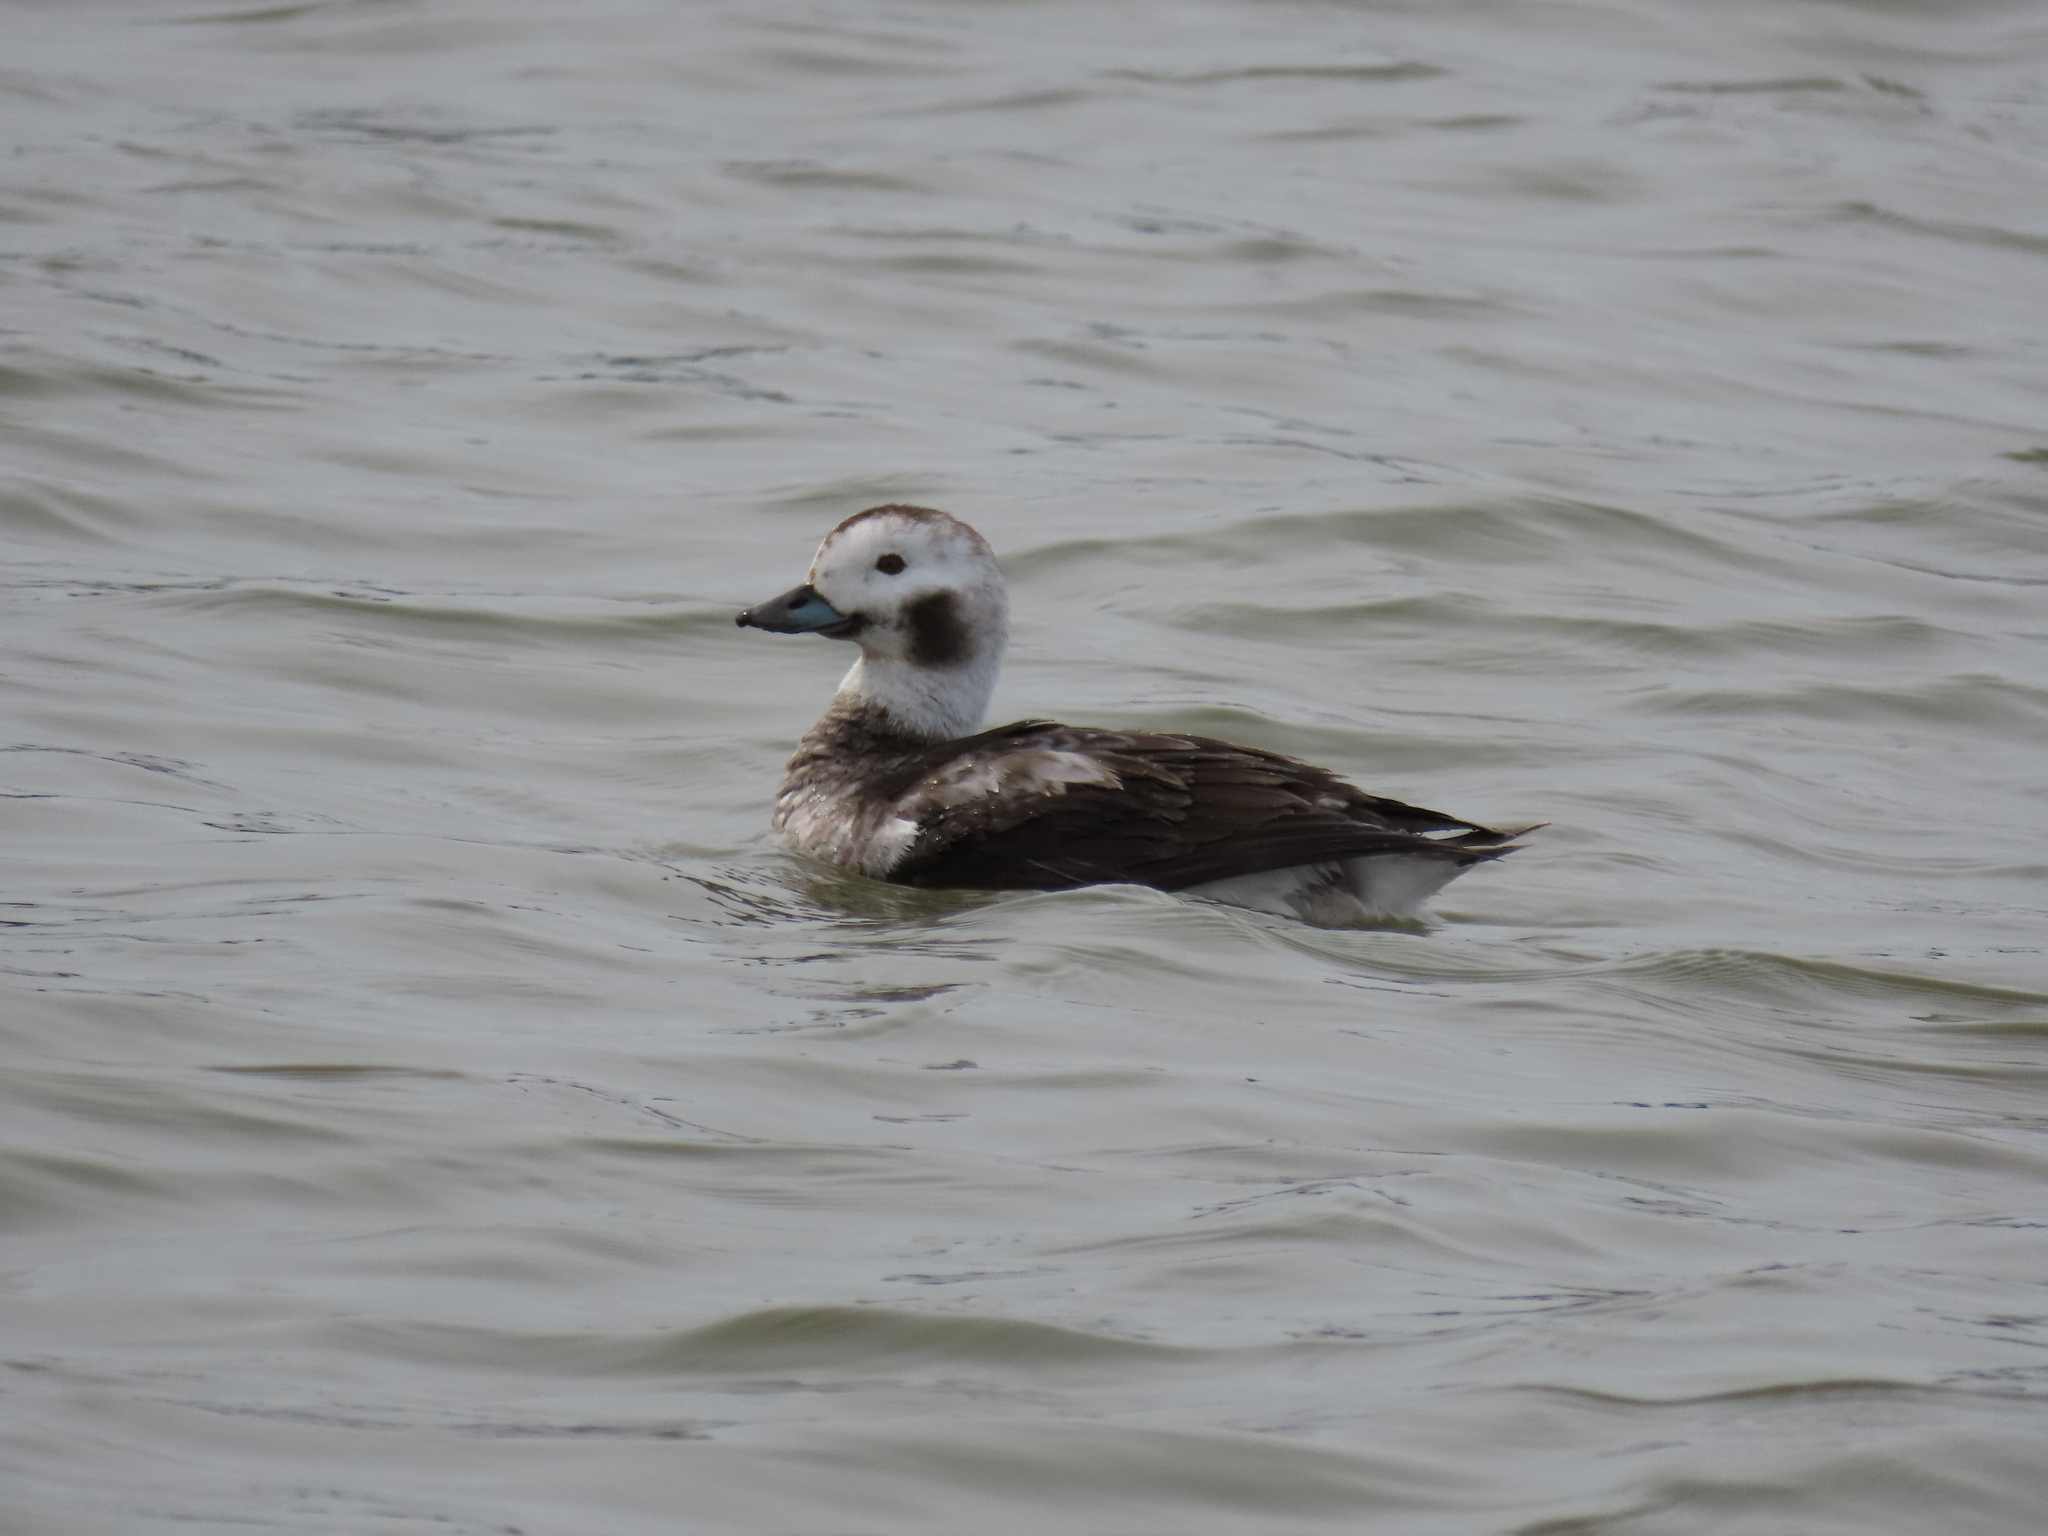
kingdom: Animalia
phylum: Chordata
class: Aves
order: Anseriformes
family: Anatidae
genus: Clangula
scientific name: Clangula hyemalis
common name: Long-tailed duck
